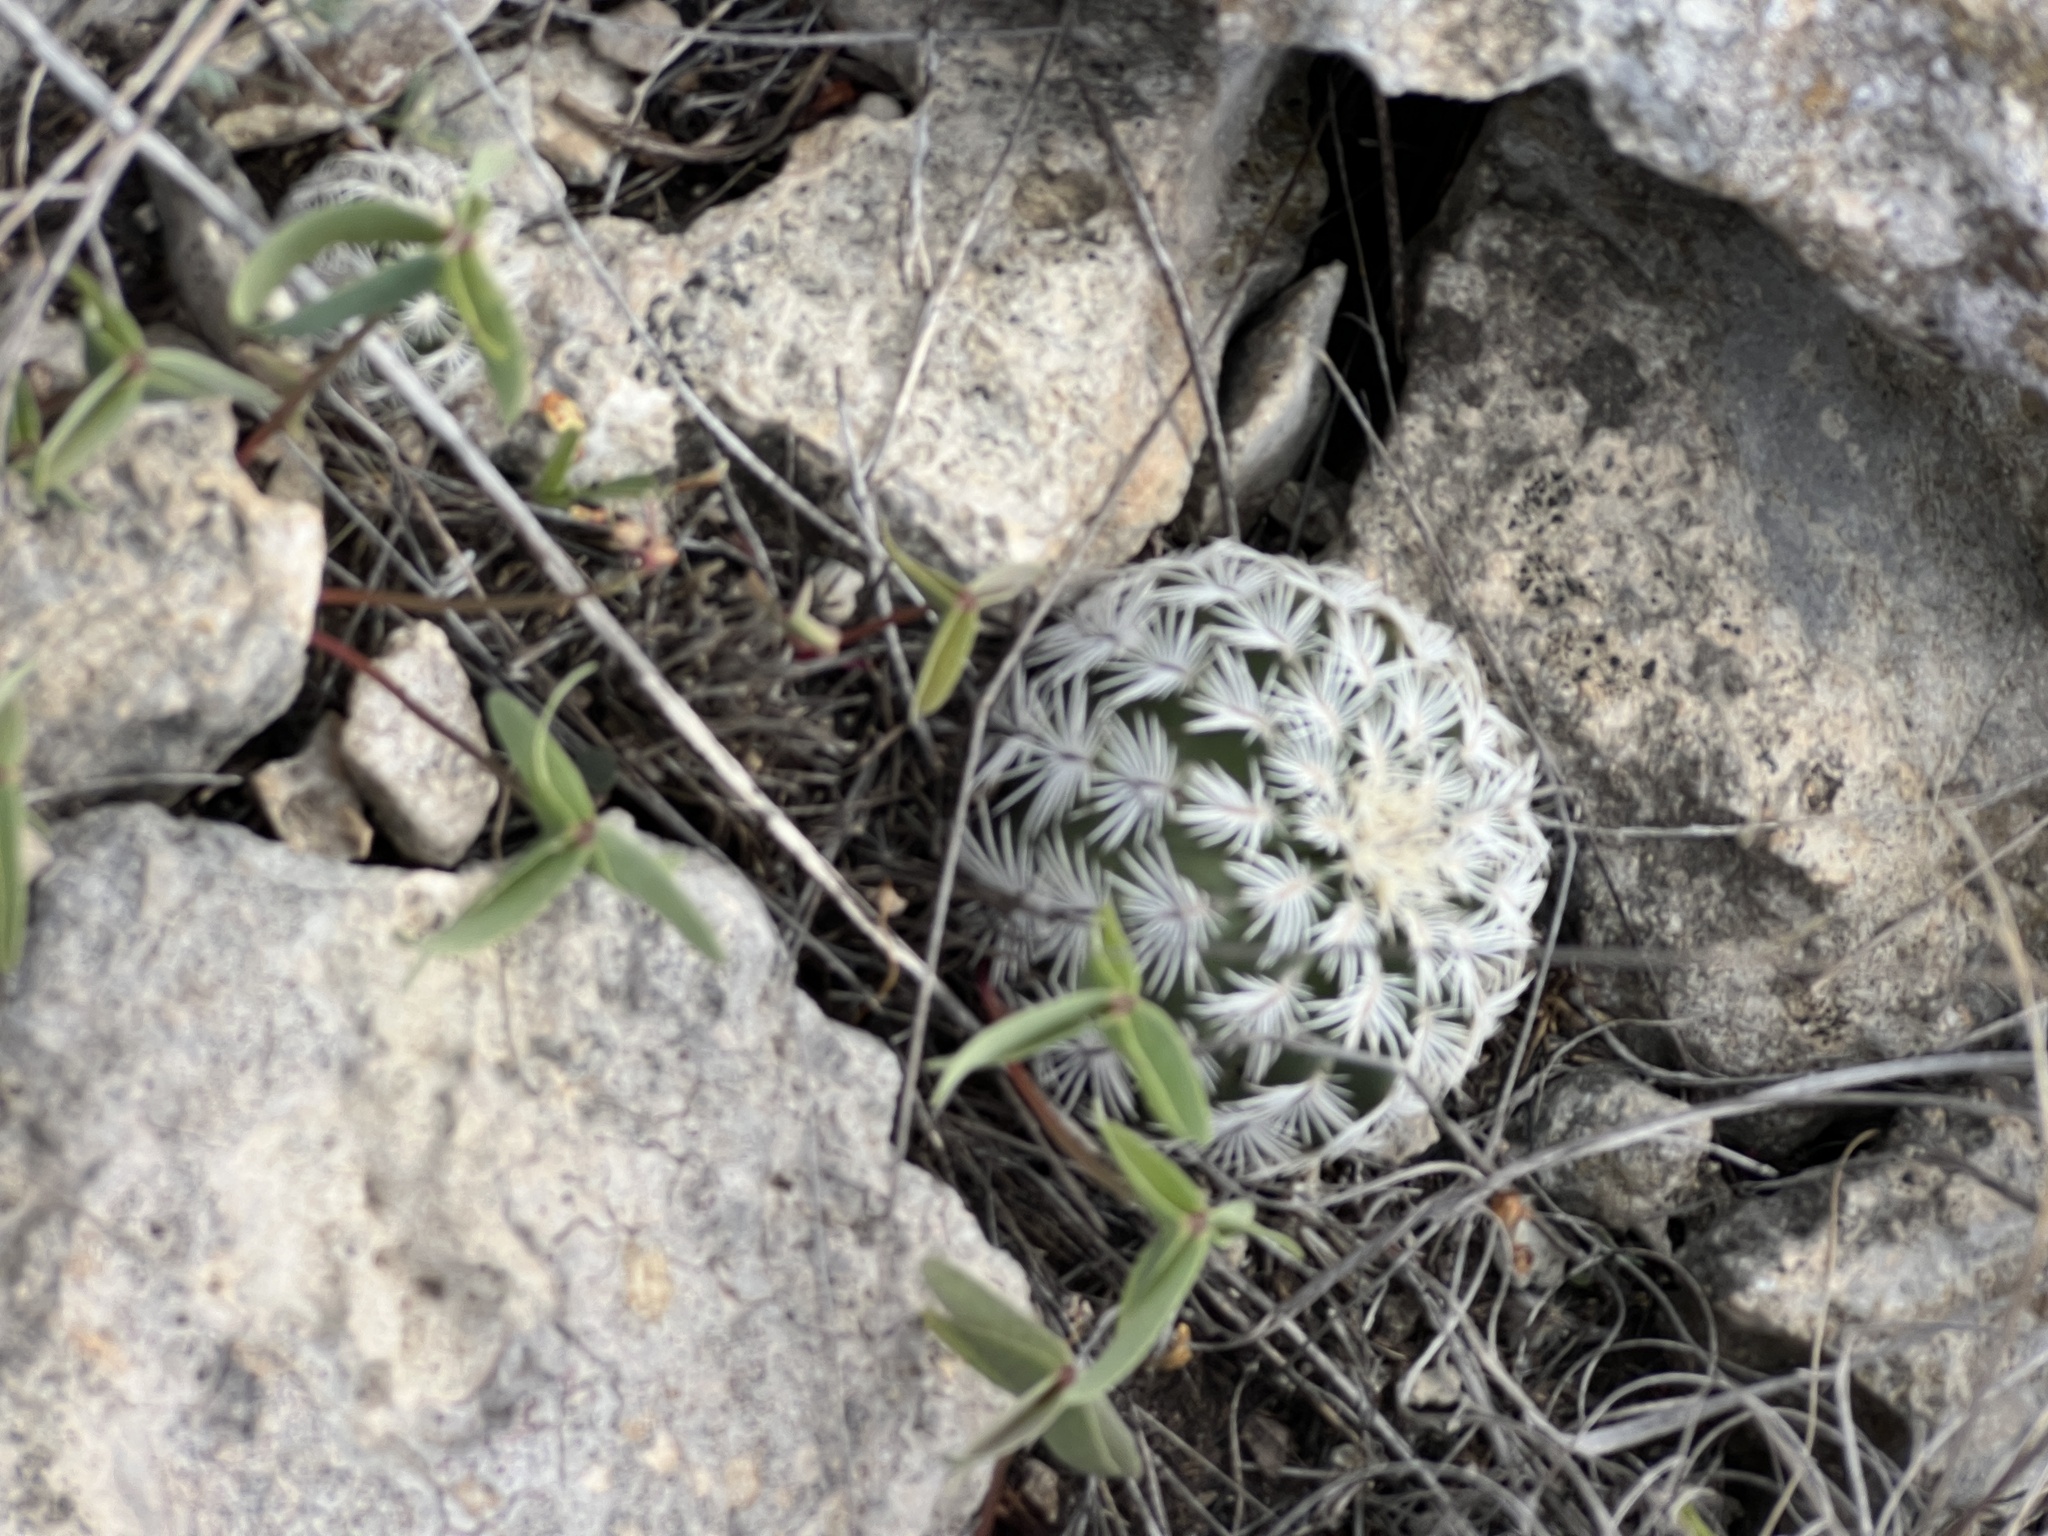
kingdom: Plantae
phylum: Tracheophyta
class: Magnoliopsida
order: Caryophyllales
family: Cactaceae
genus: Echinocereus
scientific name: Echinocereus reichenbachii
